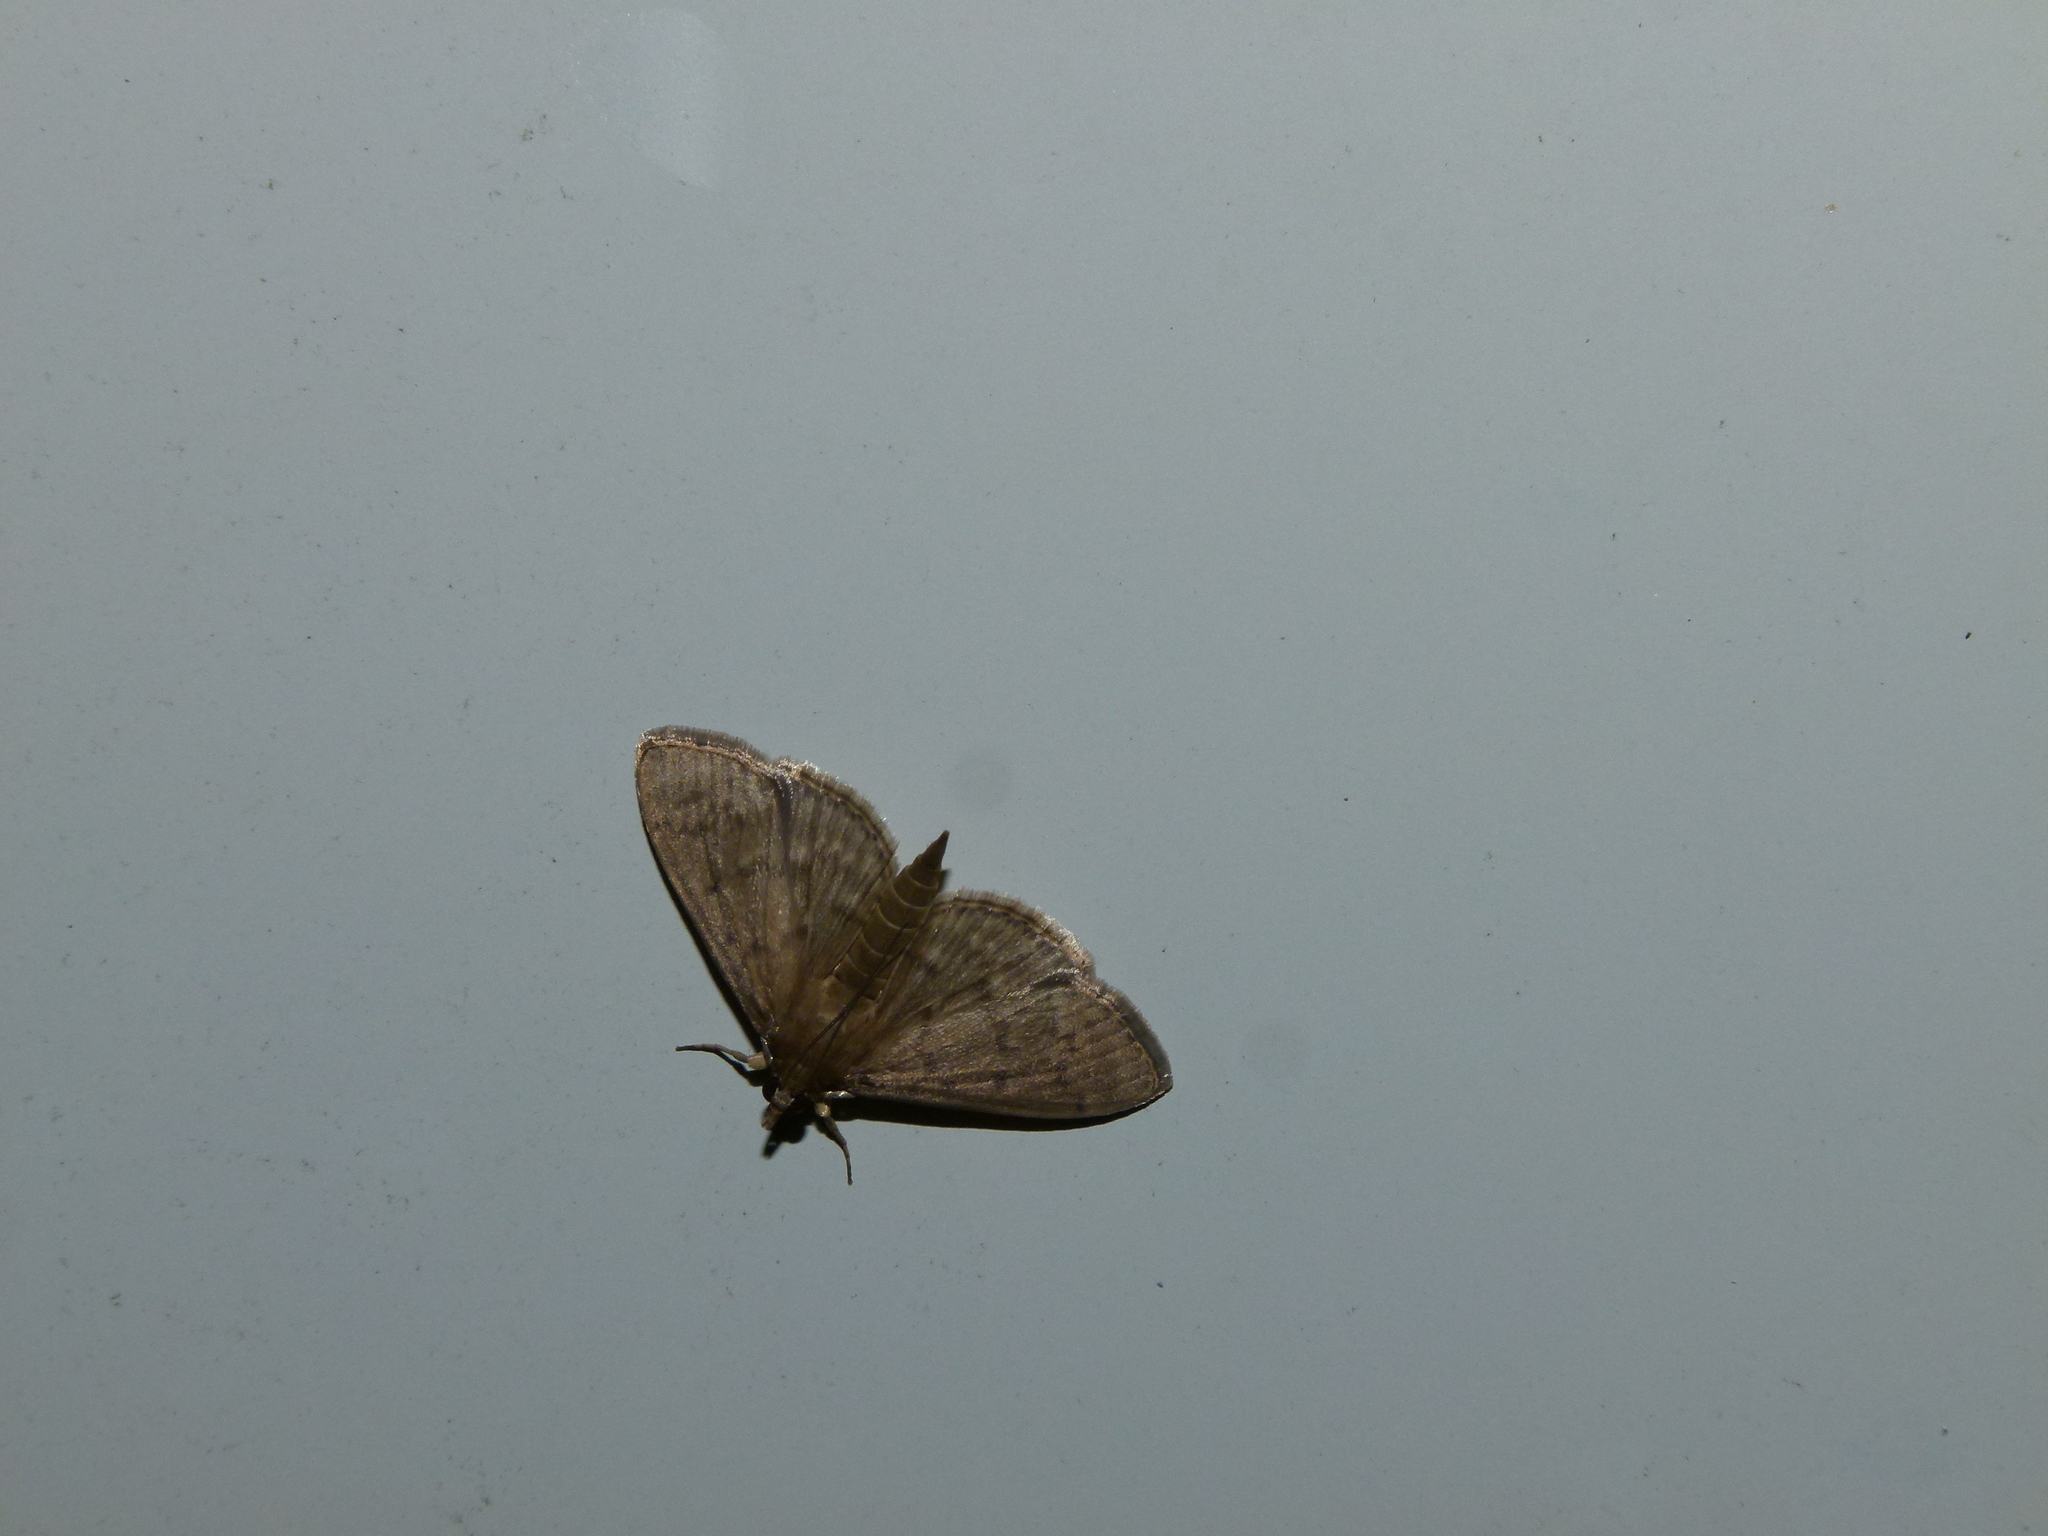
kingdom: Animalia
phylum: Arthropoda
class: Insecta
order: Lepidoptera
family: Crambidae
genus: Herpetogramma
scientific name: Herpetogramma licarsisalis
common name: Grass webworm
